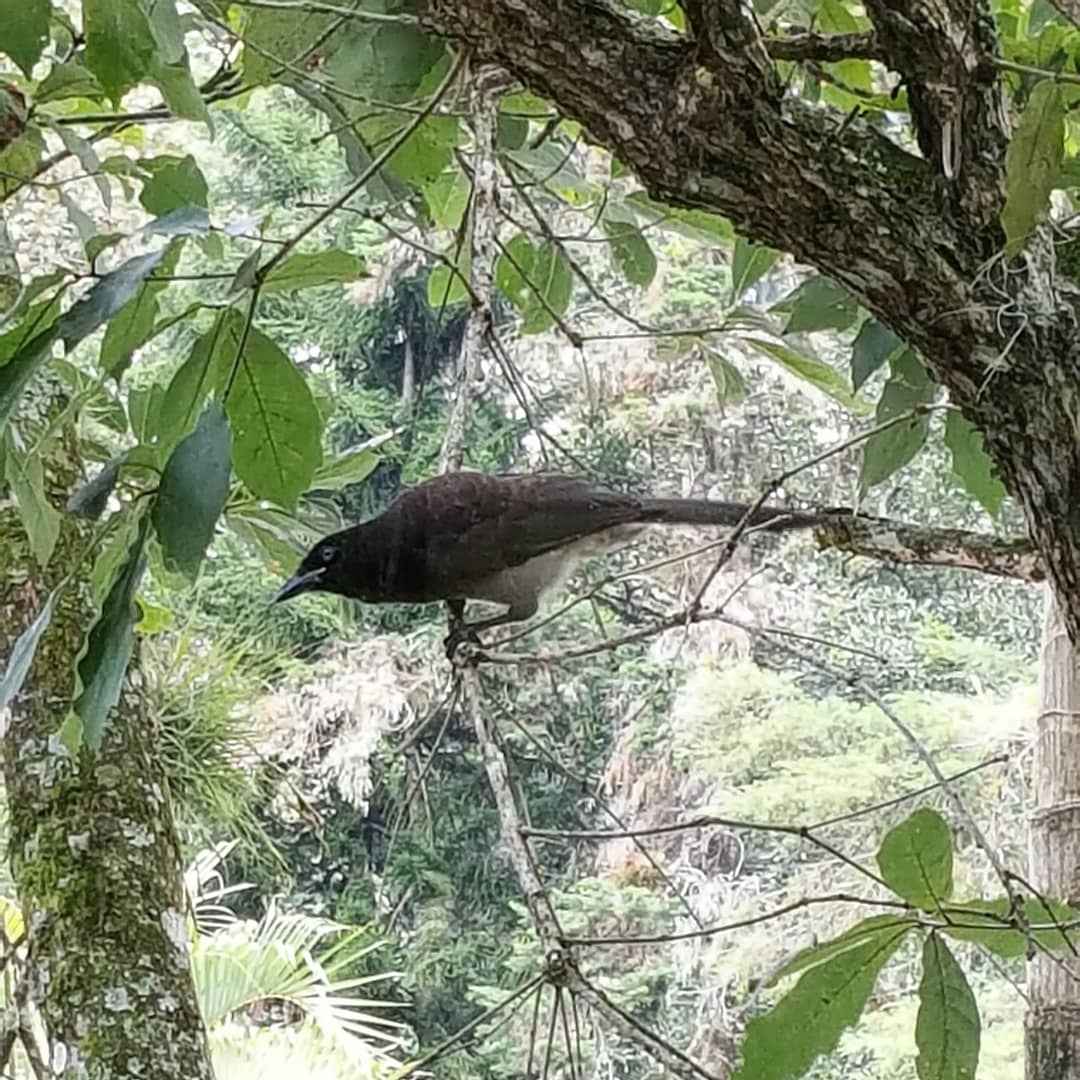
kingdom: Animalia
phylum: Chordata
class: Aves
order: Passeriformes
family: Corvidae
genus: Psilorhinus
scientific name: Psilorhinus morio
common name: Brown jay
